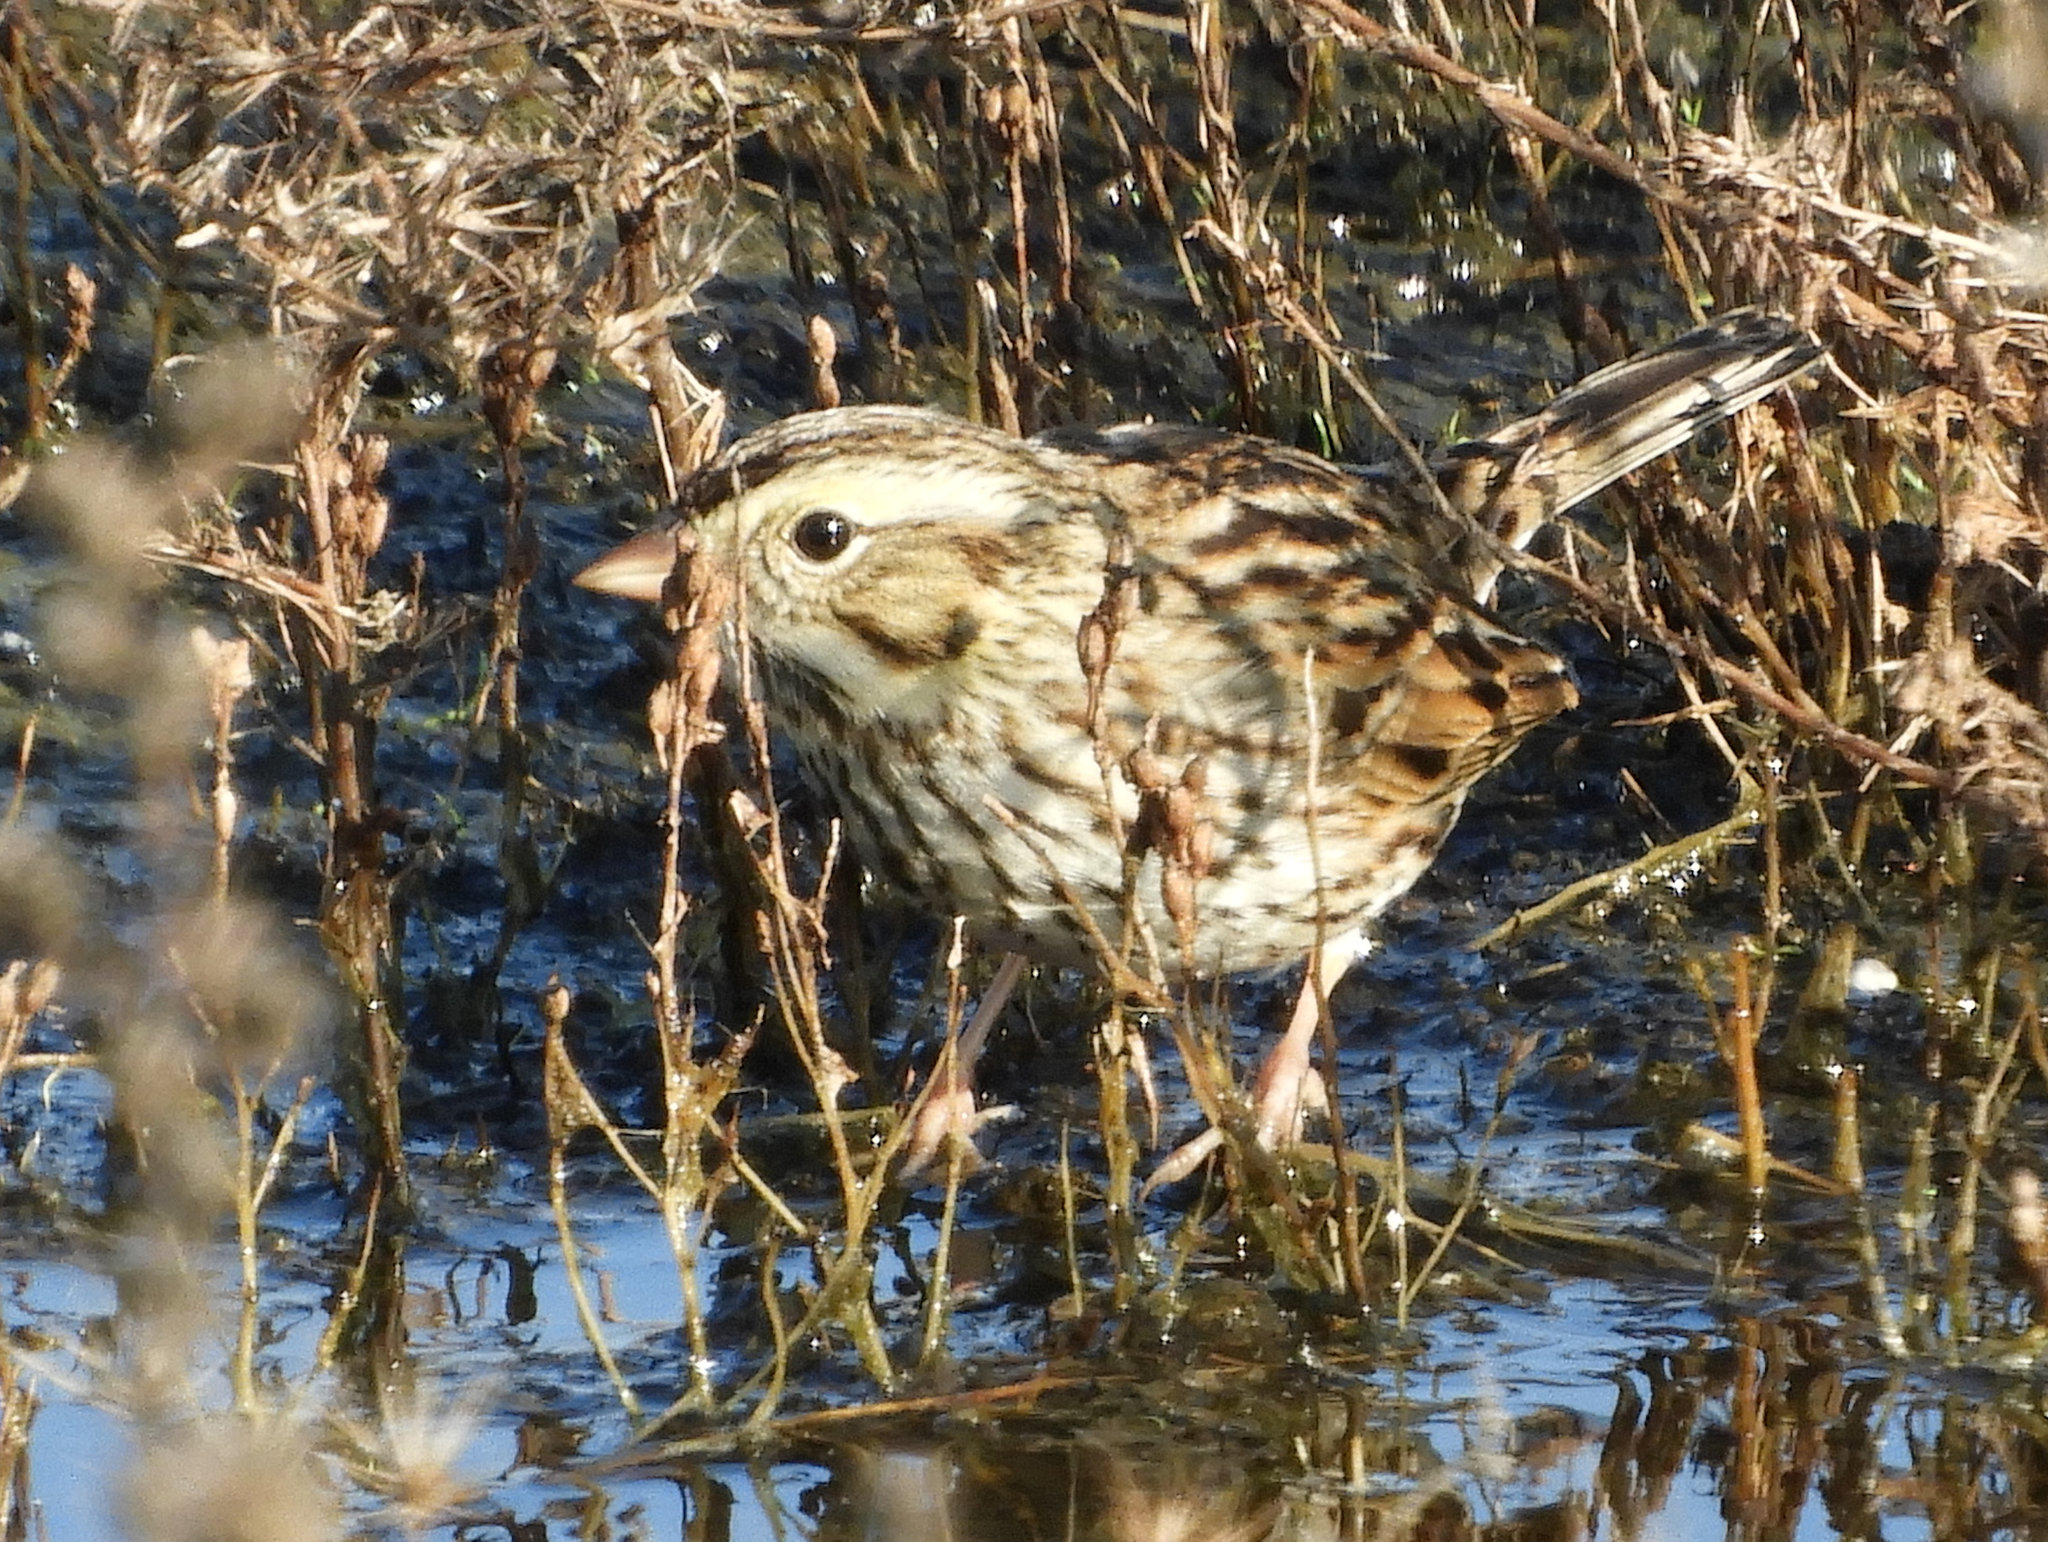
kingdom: Animalia
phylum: Chordata
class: Aves
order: Passeriformes
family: Passerellidae
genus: Passerculus
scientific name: Passerculus sandwichensis
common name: Savannah sparrow
